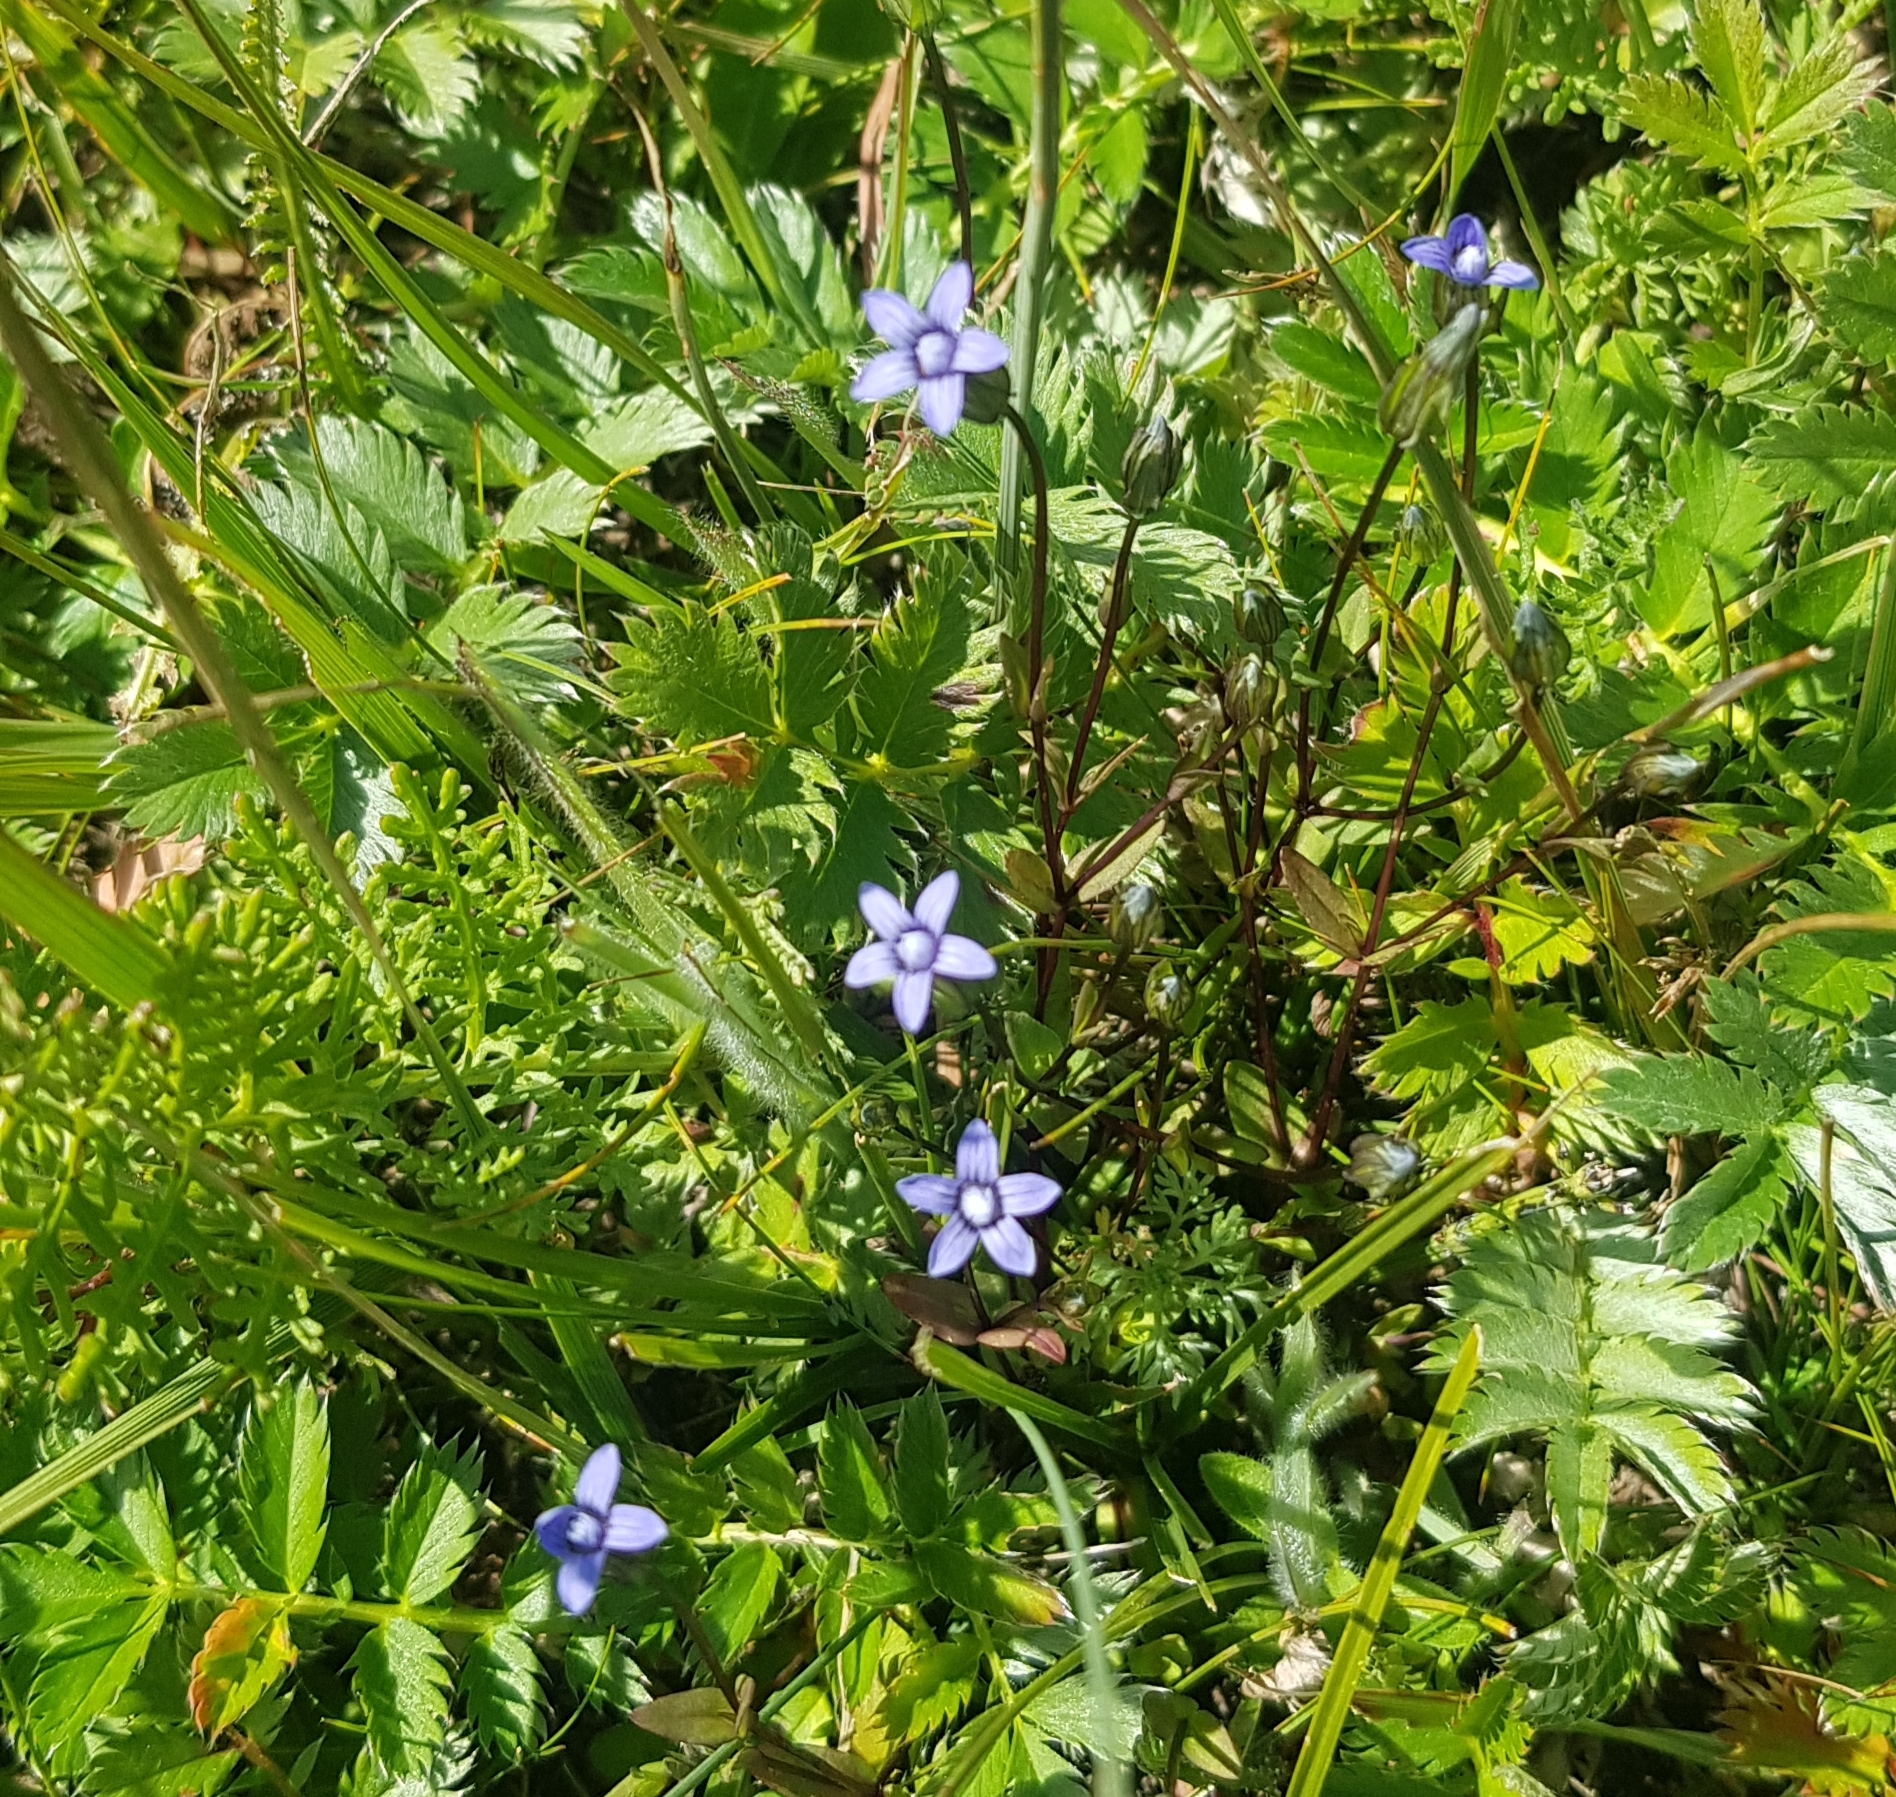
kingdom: Plantae
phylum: Tracheophyta
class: Magnoliopsida
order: Gentianales
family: Gentianaceae
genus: Comastoma
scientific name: Comastoma tenellum
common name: Dane's dwarf gentian
